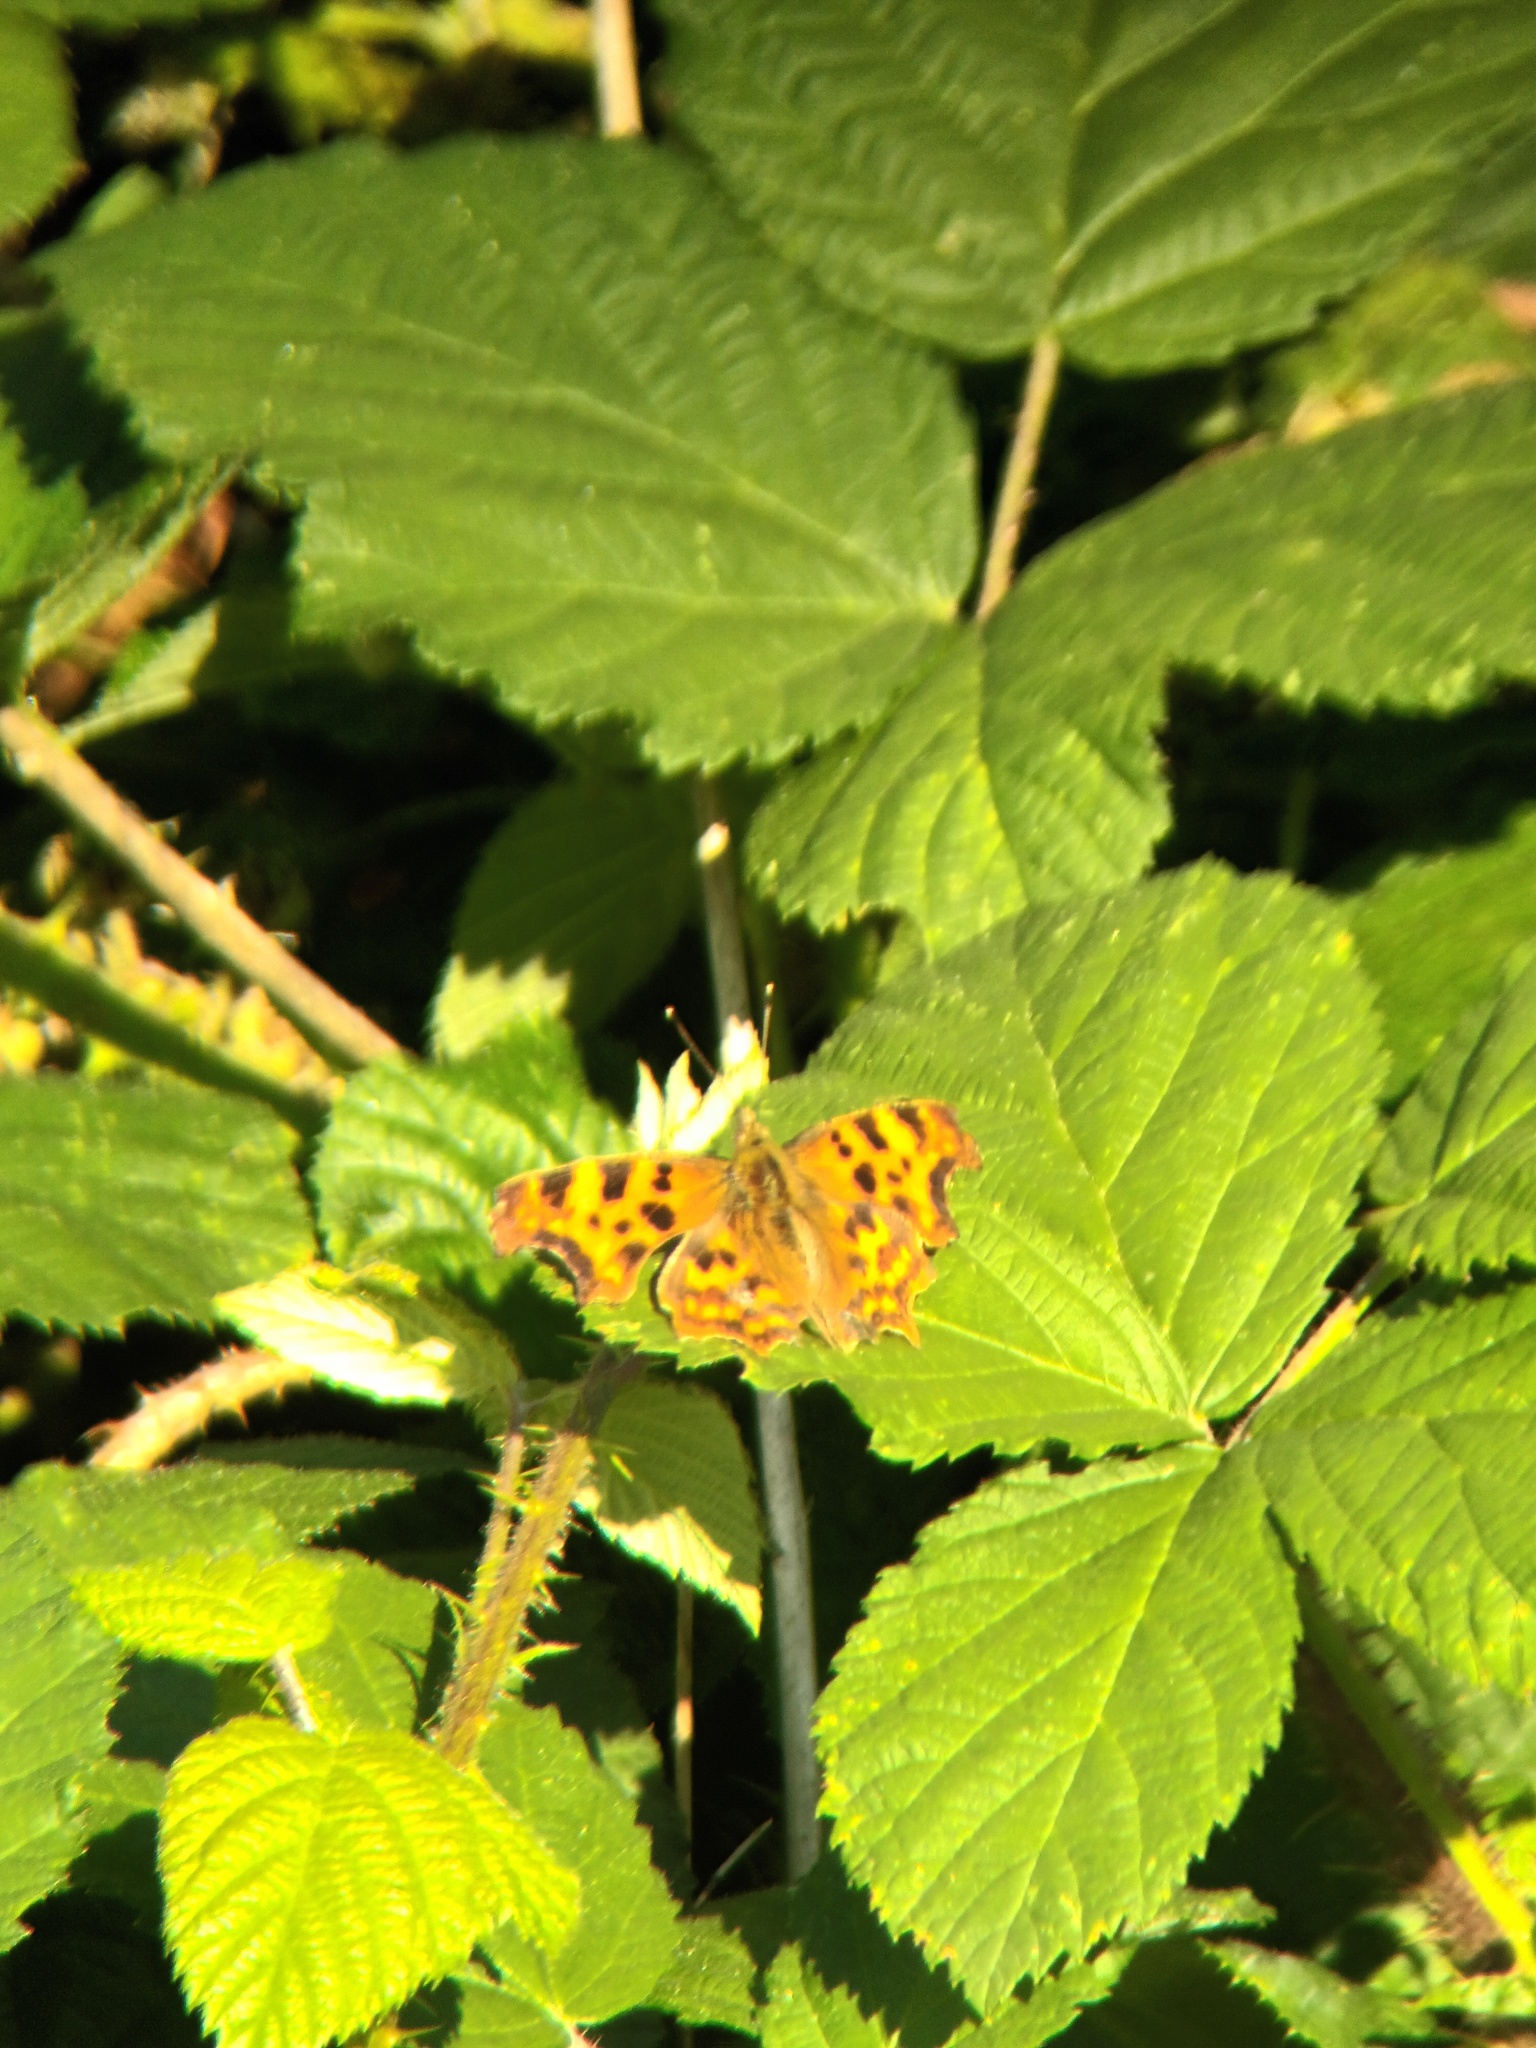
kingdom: Animalia
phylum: Arthropoda
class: Insecta
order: Lepidoptera
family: Nymphalidae
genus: Polygonia
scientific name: Polygonia c-album
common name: Comma
